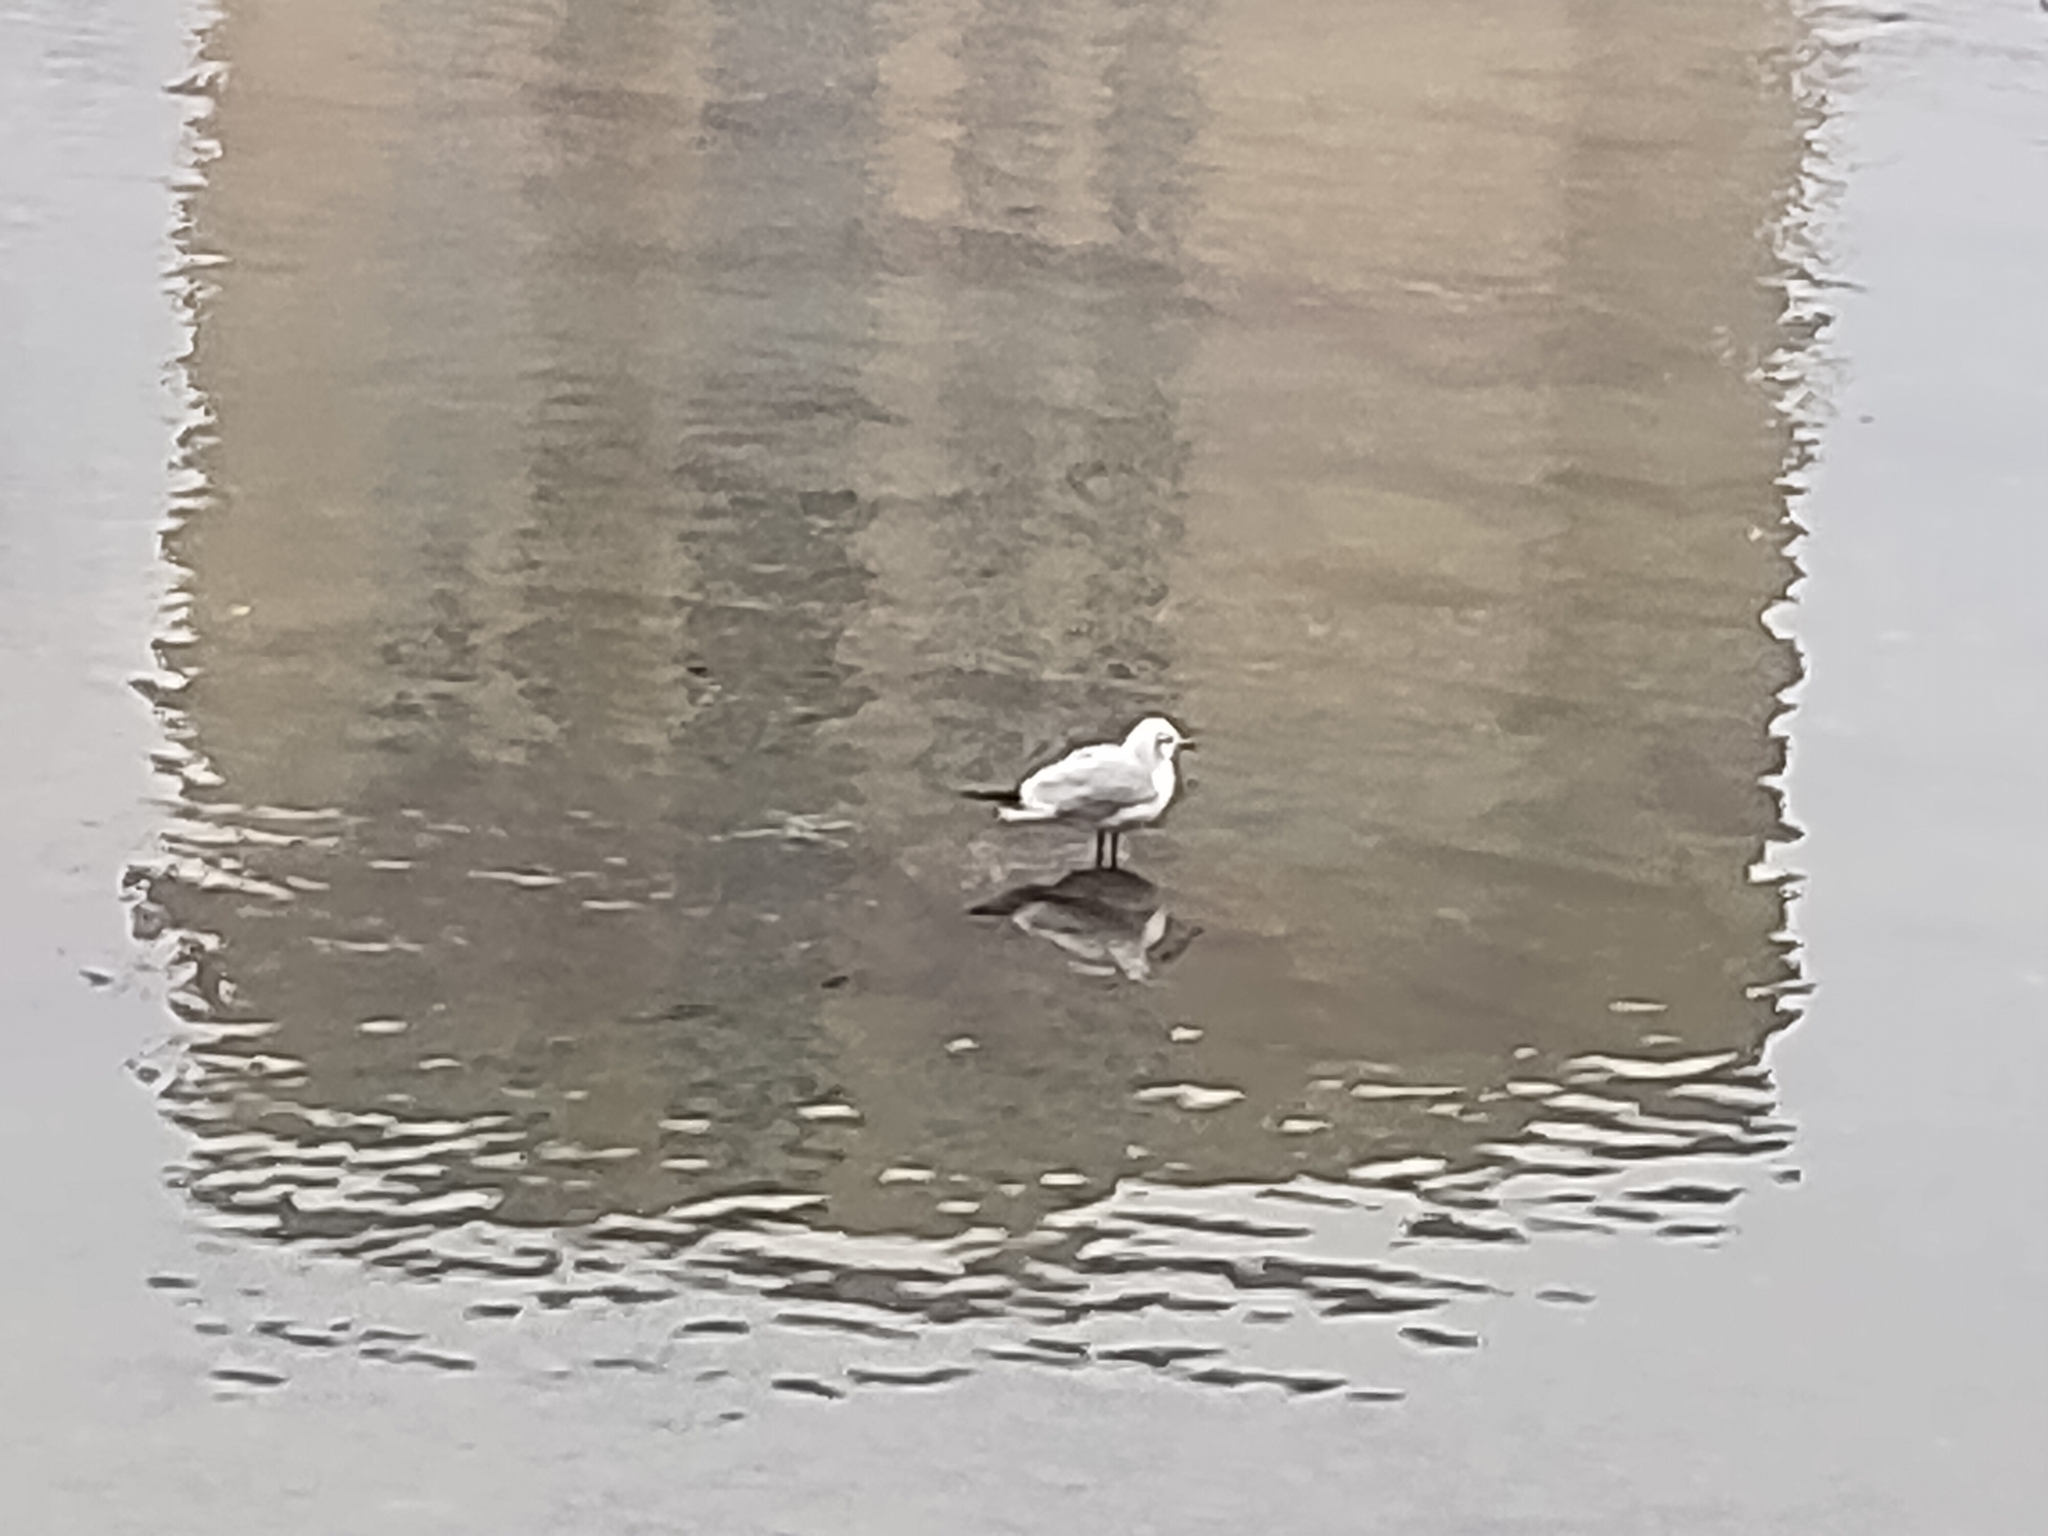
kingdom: Animalia
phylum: Chordata
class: Aves
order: Charadriiformes
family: Laridae
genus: Chroicocephalus
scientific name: Chroicocephalus ridibundus
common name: Black-headed gull
